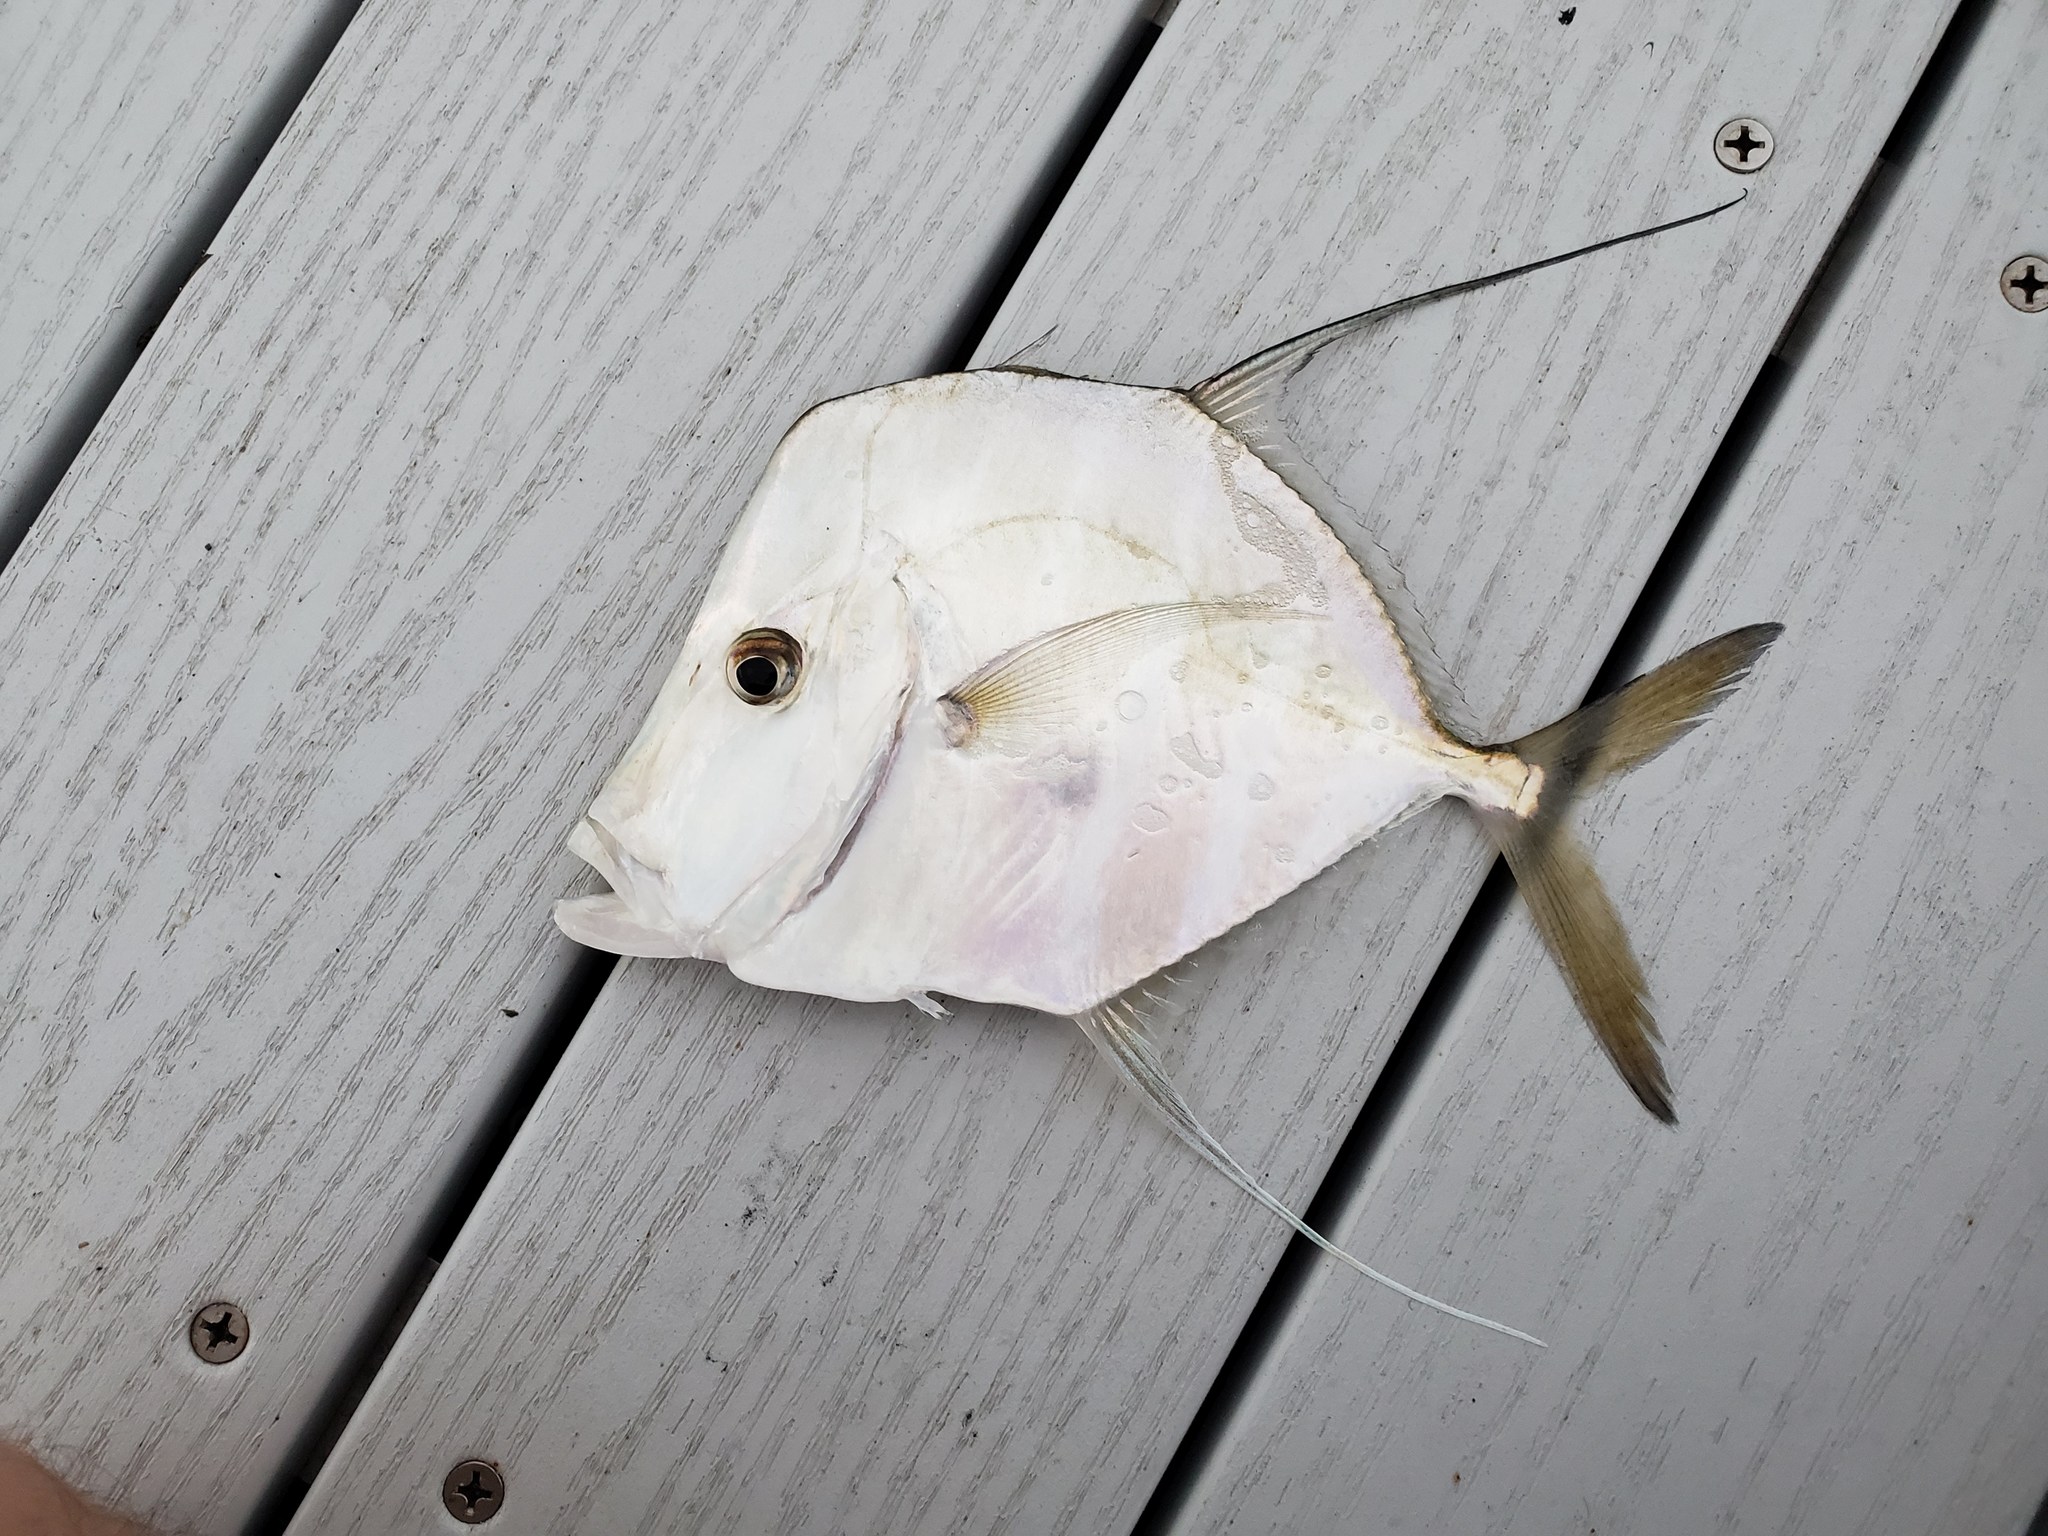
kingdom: Animalia
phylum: Chordata
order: Perciformes
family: Carangidae
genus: Selene
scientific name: Selene vomer
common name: Lookdown
